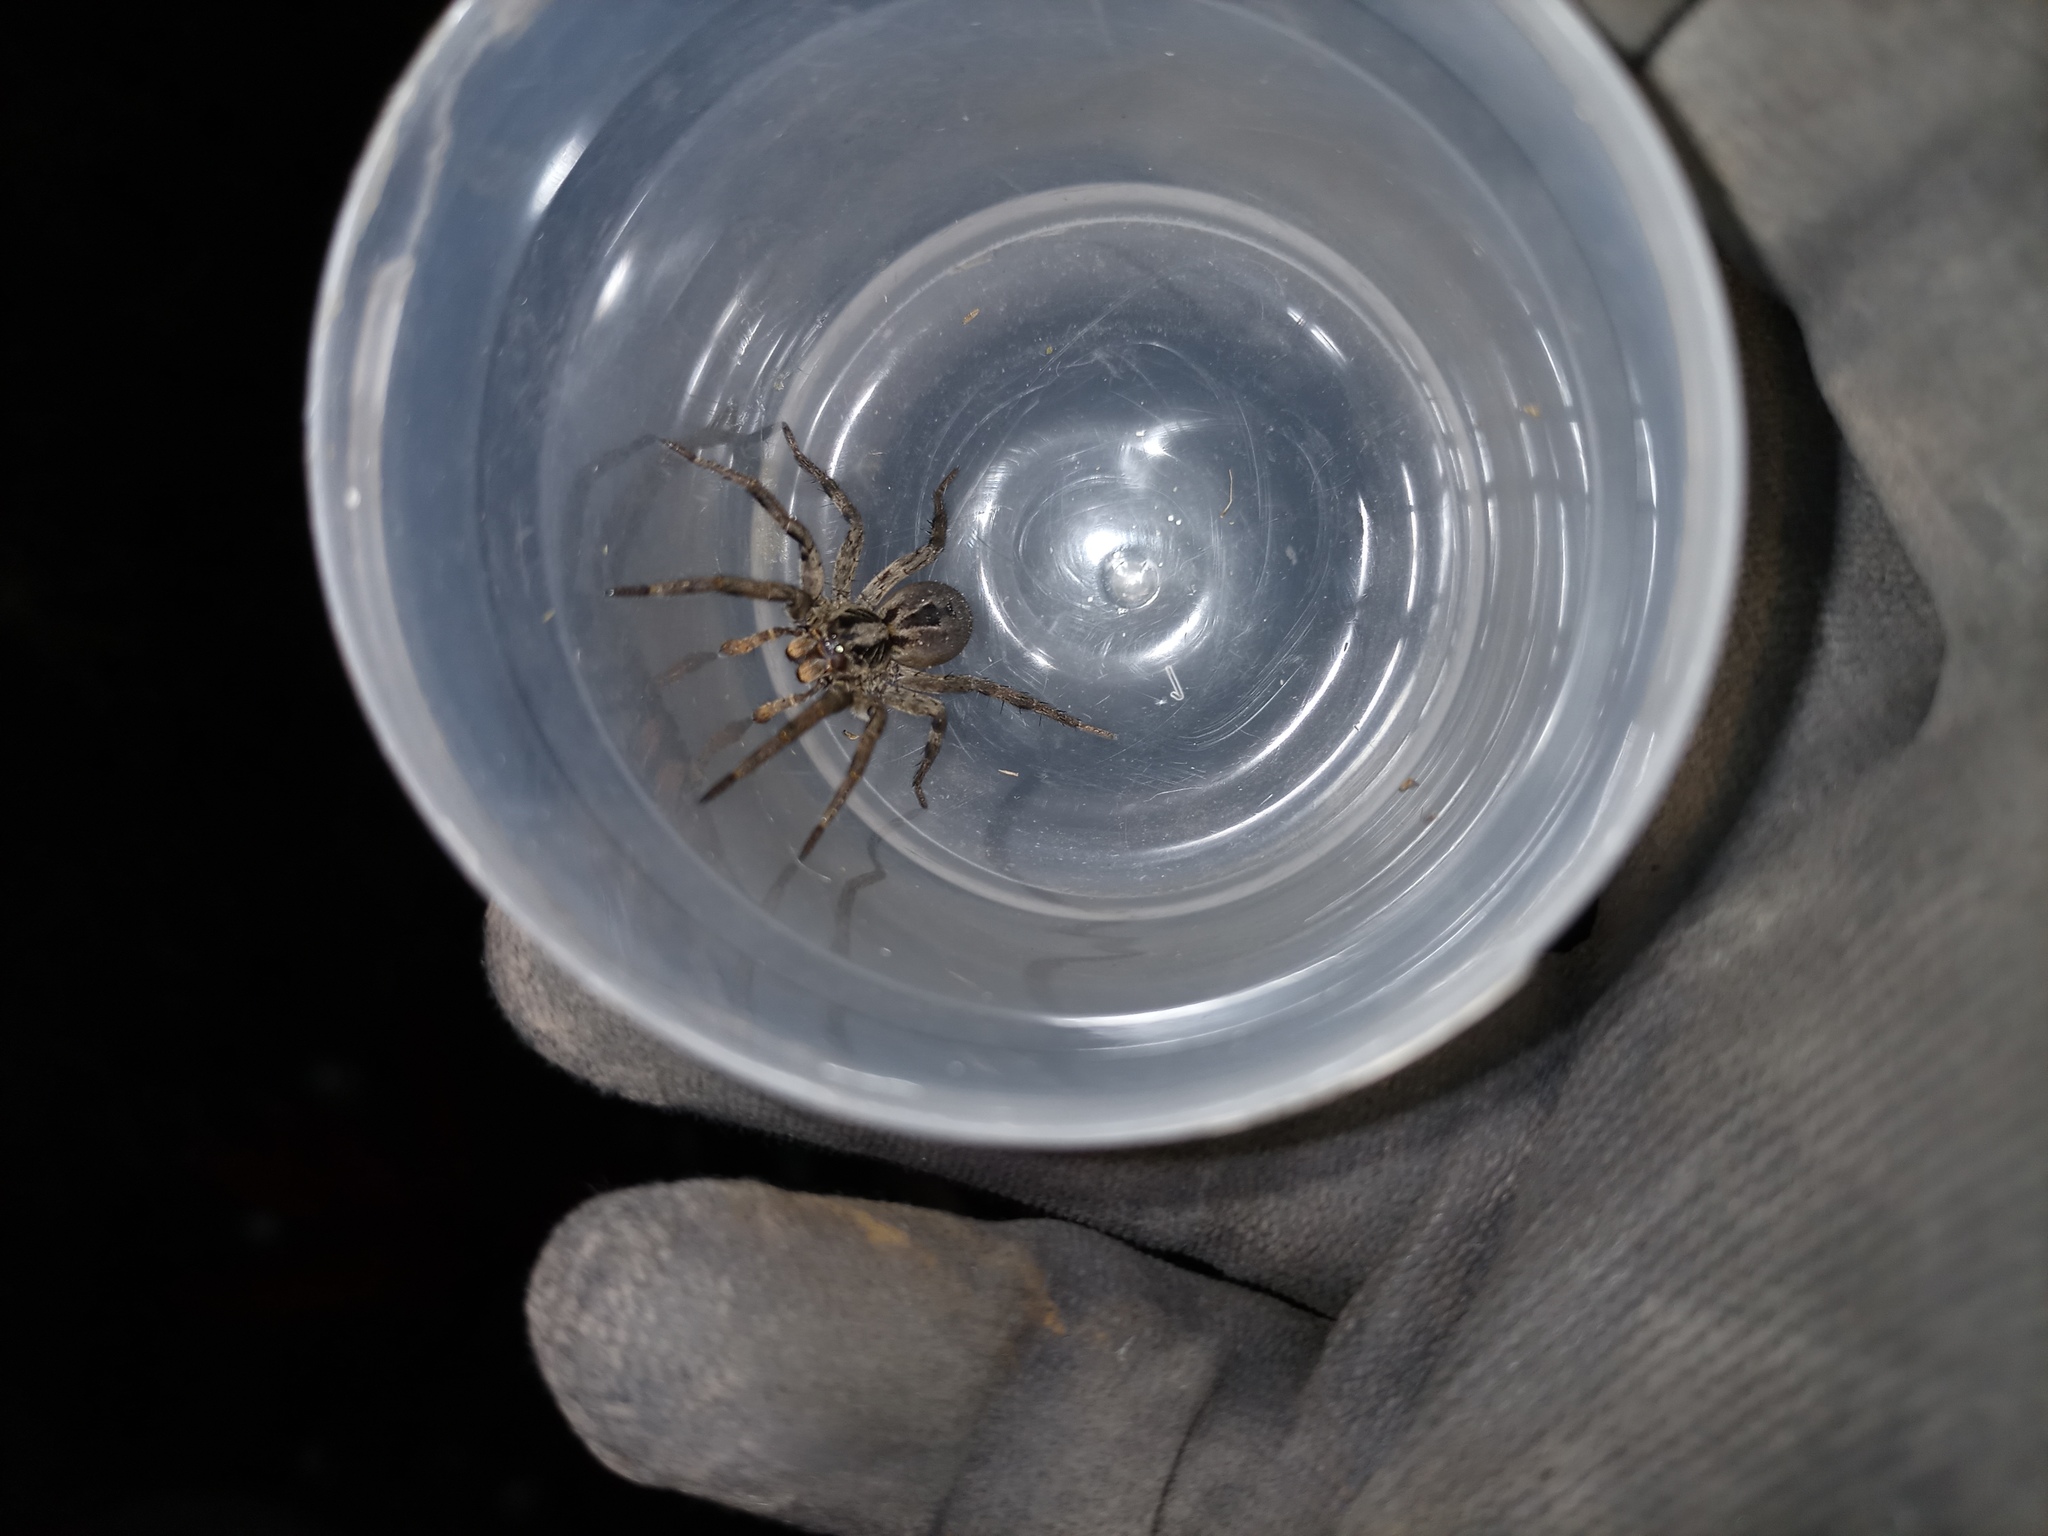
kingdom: Animalia
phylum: Arthropoda
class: Arachnida
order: Araneae
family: Lycosidae
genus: Lycosa
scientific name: Lycosa erythrognatha
